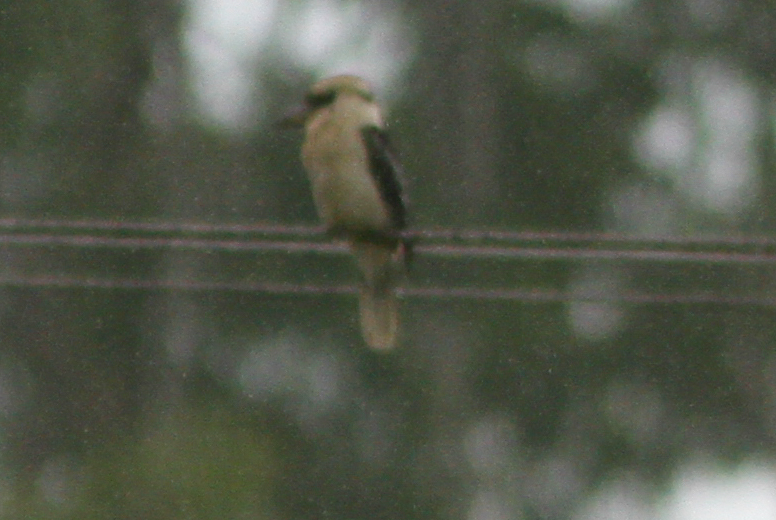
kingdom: Animalia
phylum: Chordata
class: Aves
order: Coraciiformes
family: Alcedinidae
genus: Dacelo
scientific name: Dacelo novaeguineae
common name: Laughing kookaburra
